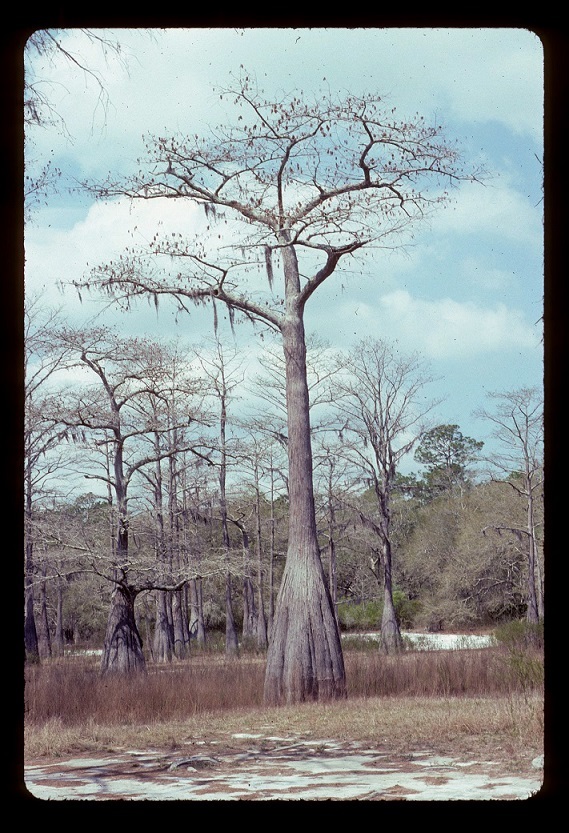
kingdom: Plantae
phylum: Tracheophyta
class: Pinopsida
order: Pinales
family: Cupressaceae
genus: Taxodium
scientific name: Taxodium distichum
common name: Bald cypress
